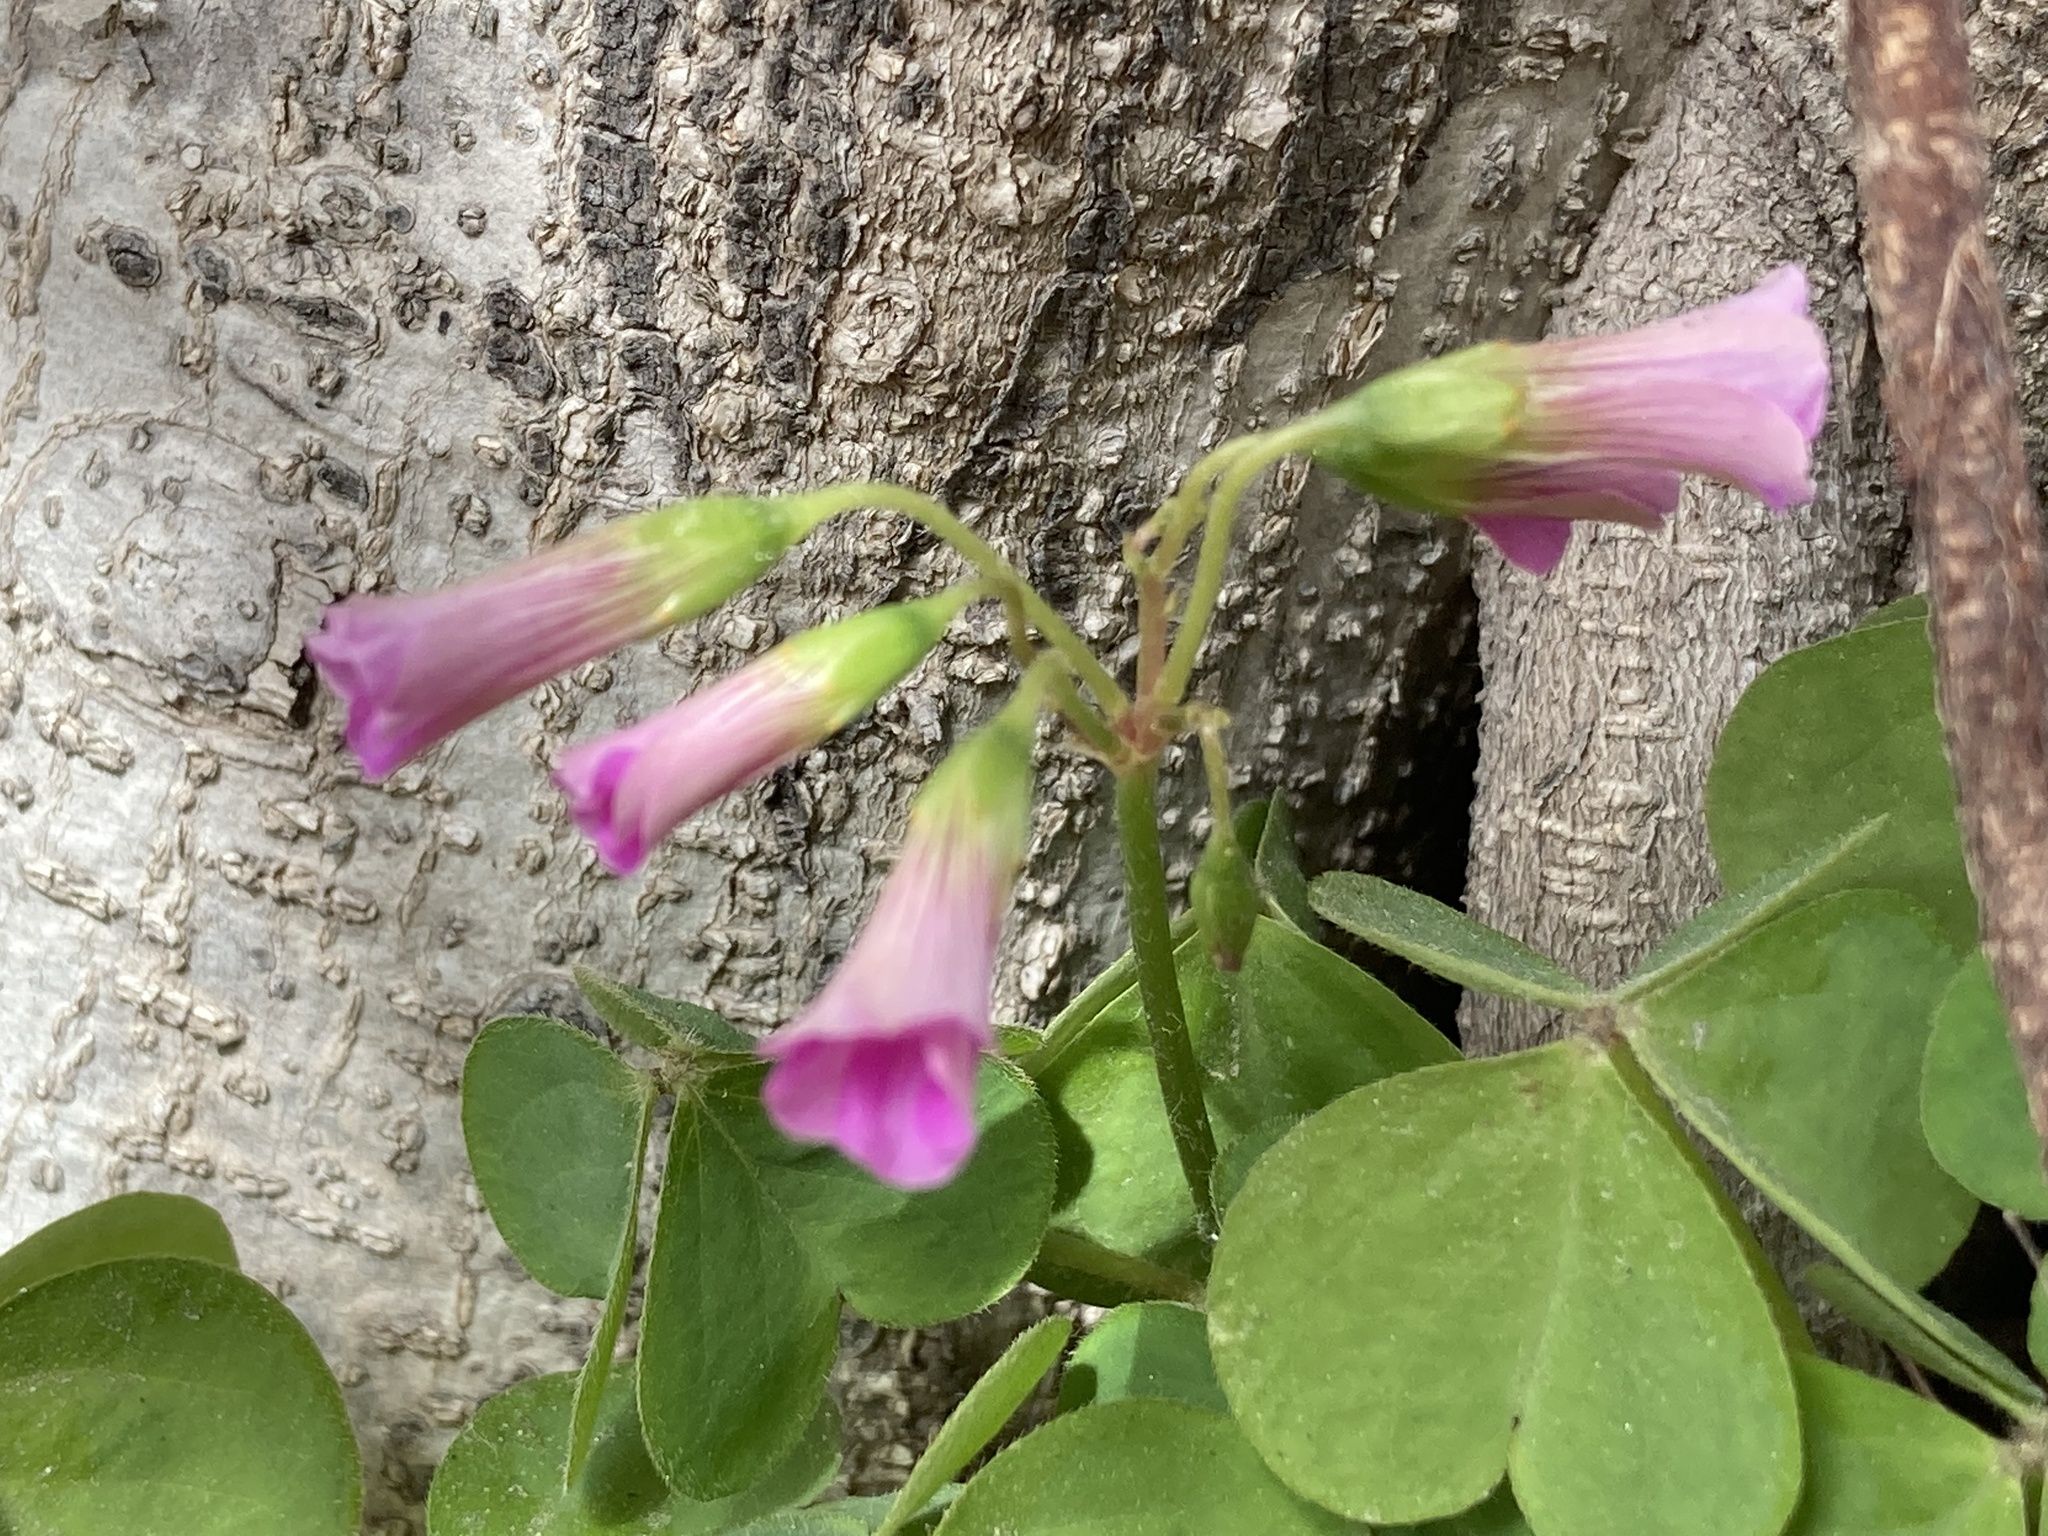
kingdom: Plantae
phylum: Tracheophyta
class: Magnoliopsida
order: Oxalidales
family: Oxalidaceae
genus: Oxalis
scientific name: Oxalis debilis
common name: Large-flowered pink-sorrel
